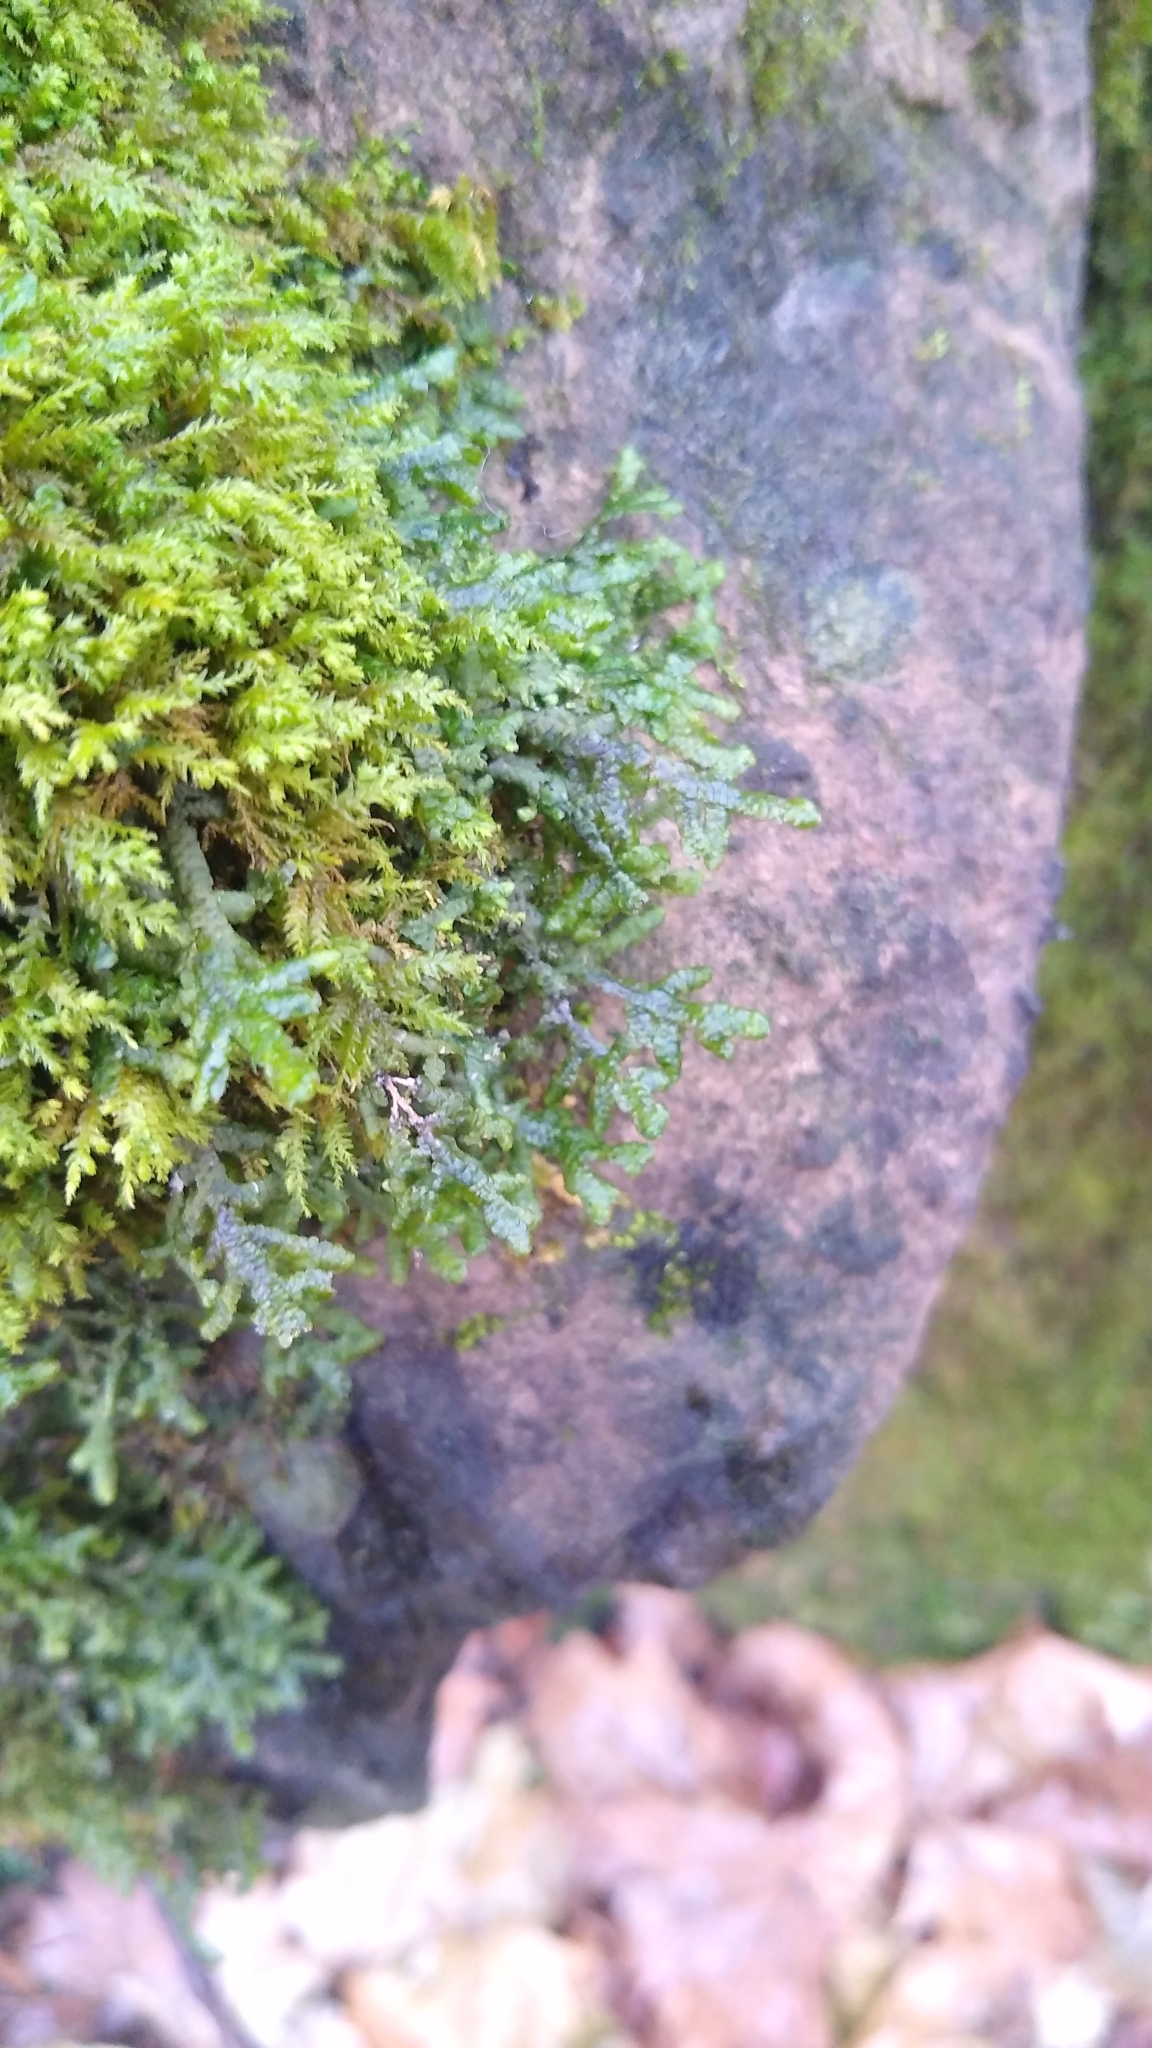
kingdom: Plantae
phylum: Marchantiophyta
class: Jungermanniopsida
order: Porellales
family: Porellaceae
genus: Porella
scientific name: Porella platyphylla
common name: Wall scalewort
